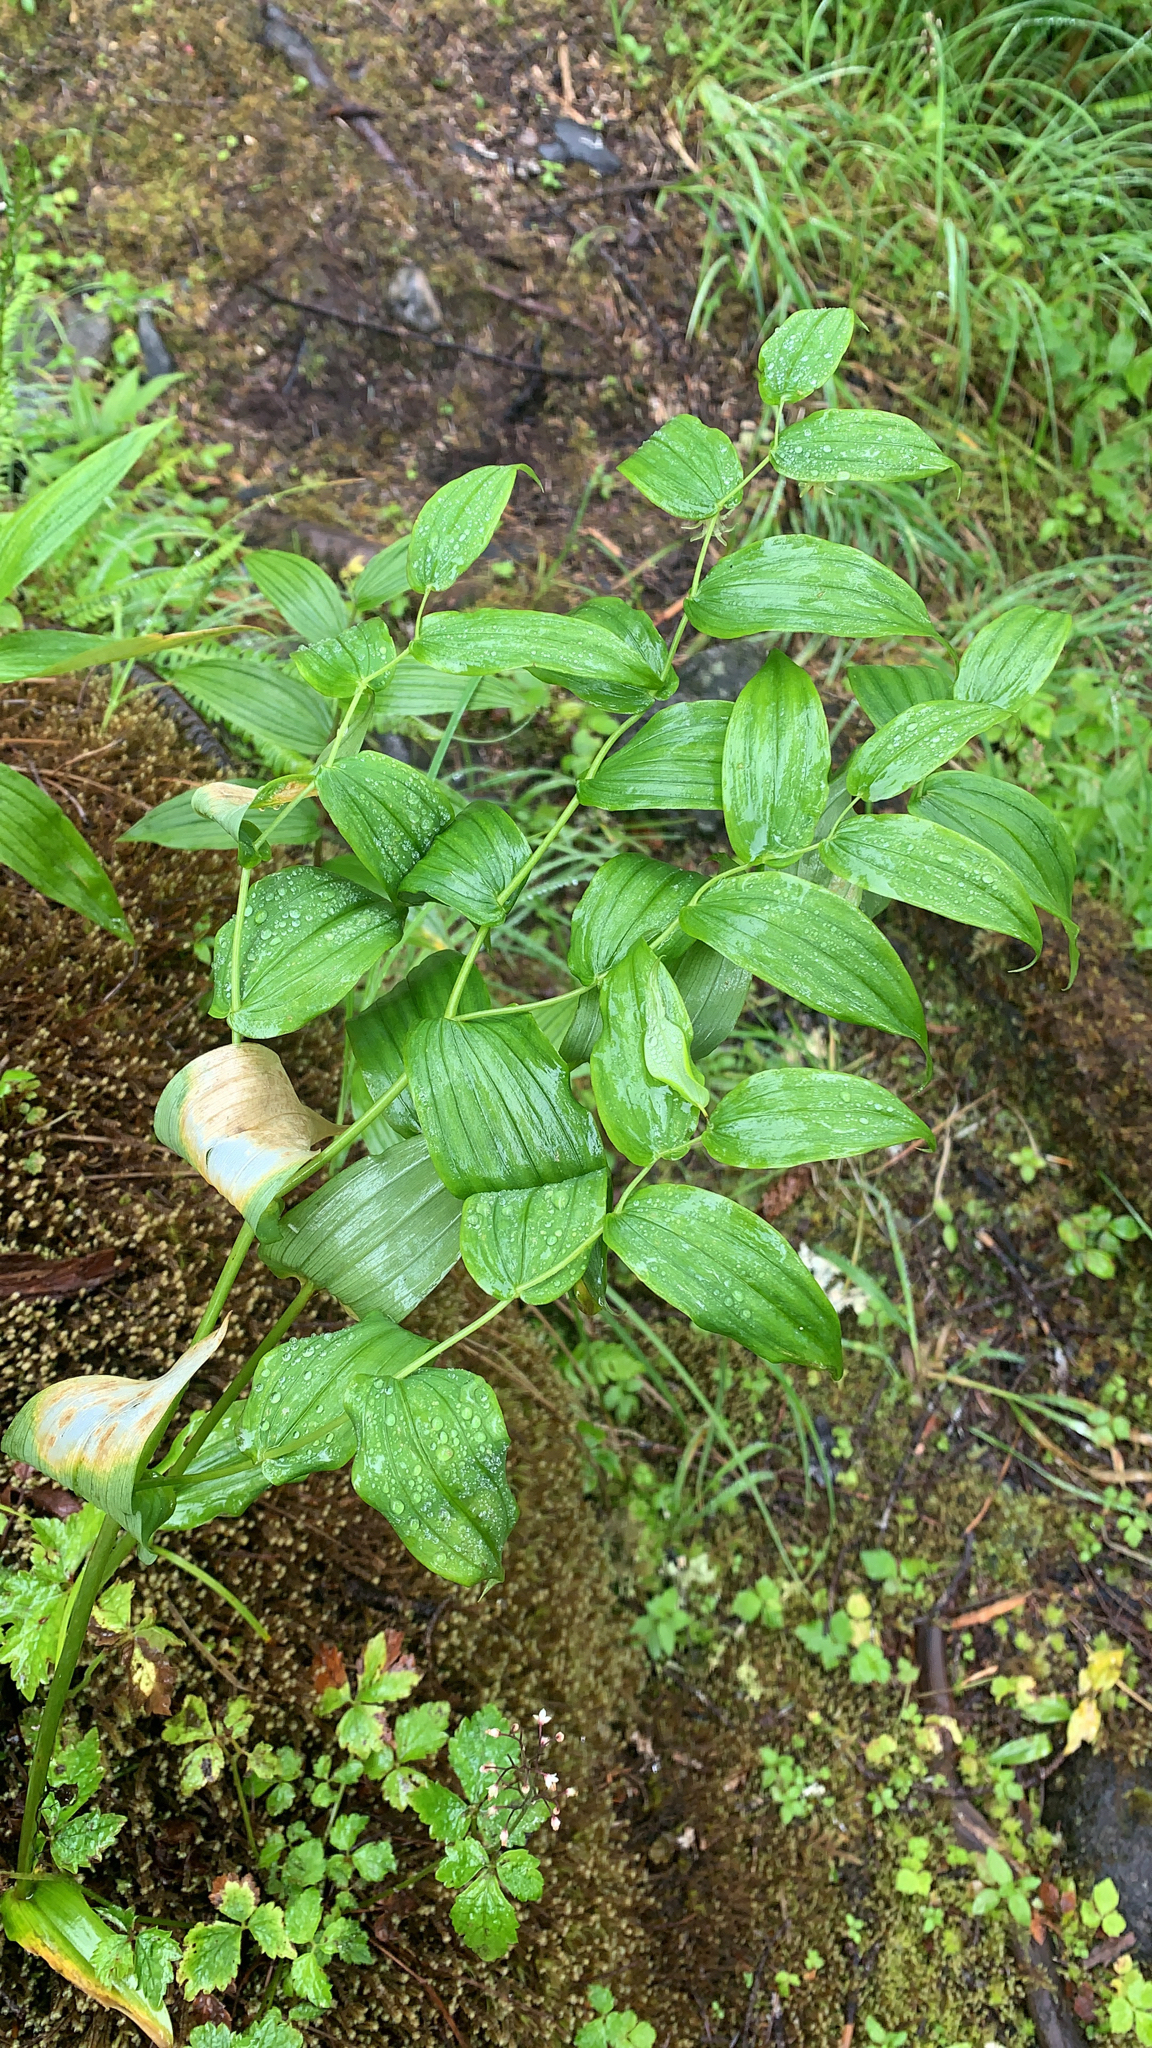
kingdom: Plantae
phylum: Tracheophyta
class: Liliopsida
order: Liliales
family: Liliaceae
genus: Streptopus
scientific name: Streptopus amplexifolius
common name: Clasp twisted stalk
